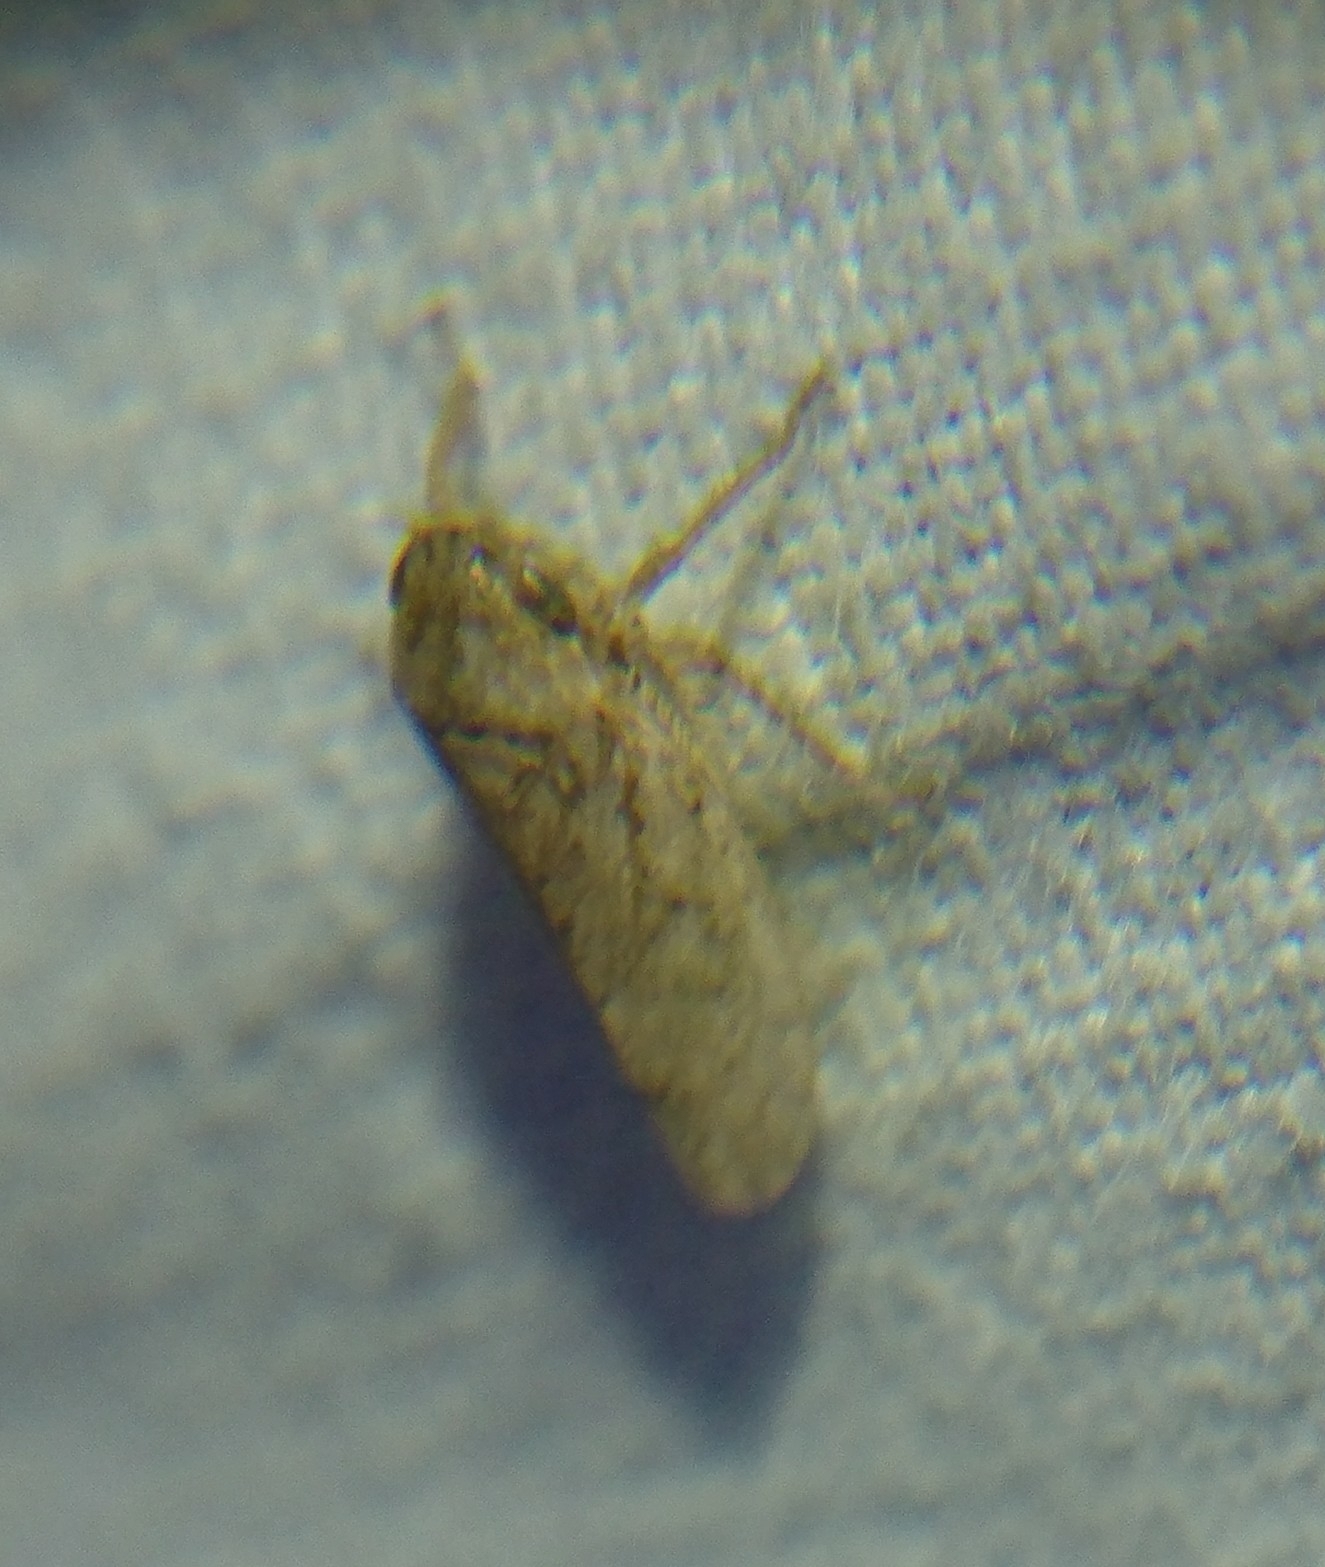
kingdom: Animalia
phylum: Arthropoda
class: Insecta
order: Hemiptera
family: Cicadellidae
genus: Curtara
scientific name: Curtara insularis
